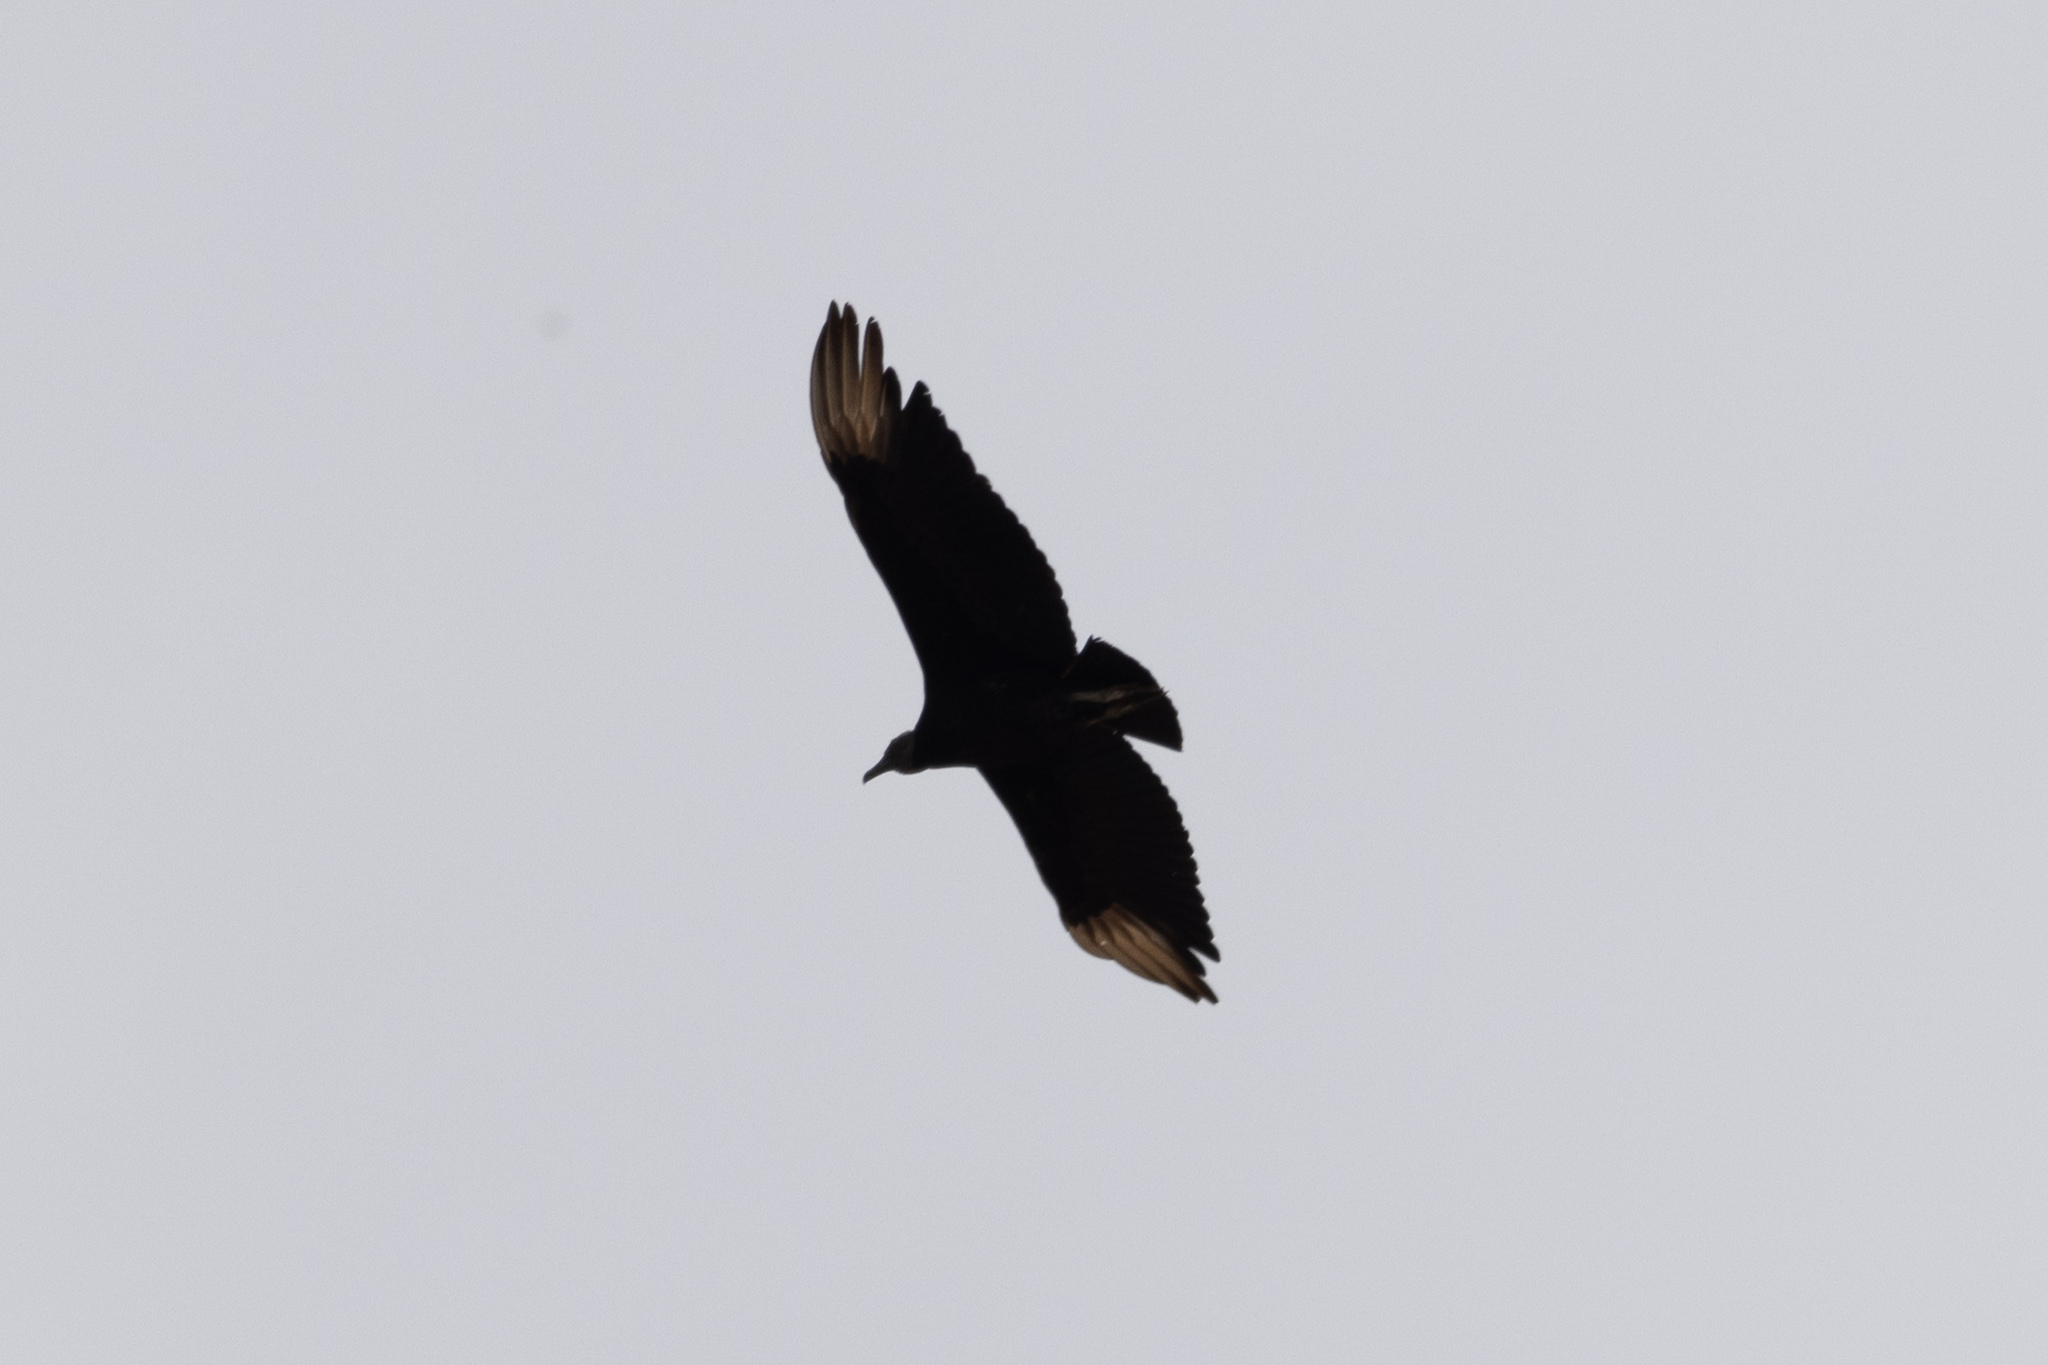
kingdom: Animalia
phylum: Chordata
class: Aves
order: Accipitriformes
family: Cathartidae
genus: Coragyps
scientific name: Coragyps atratus
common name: Black vulture
